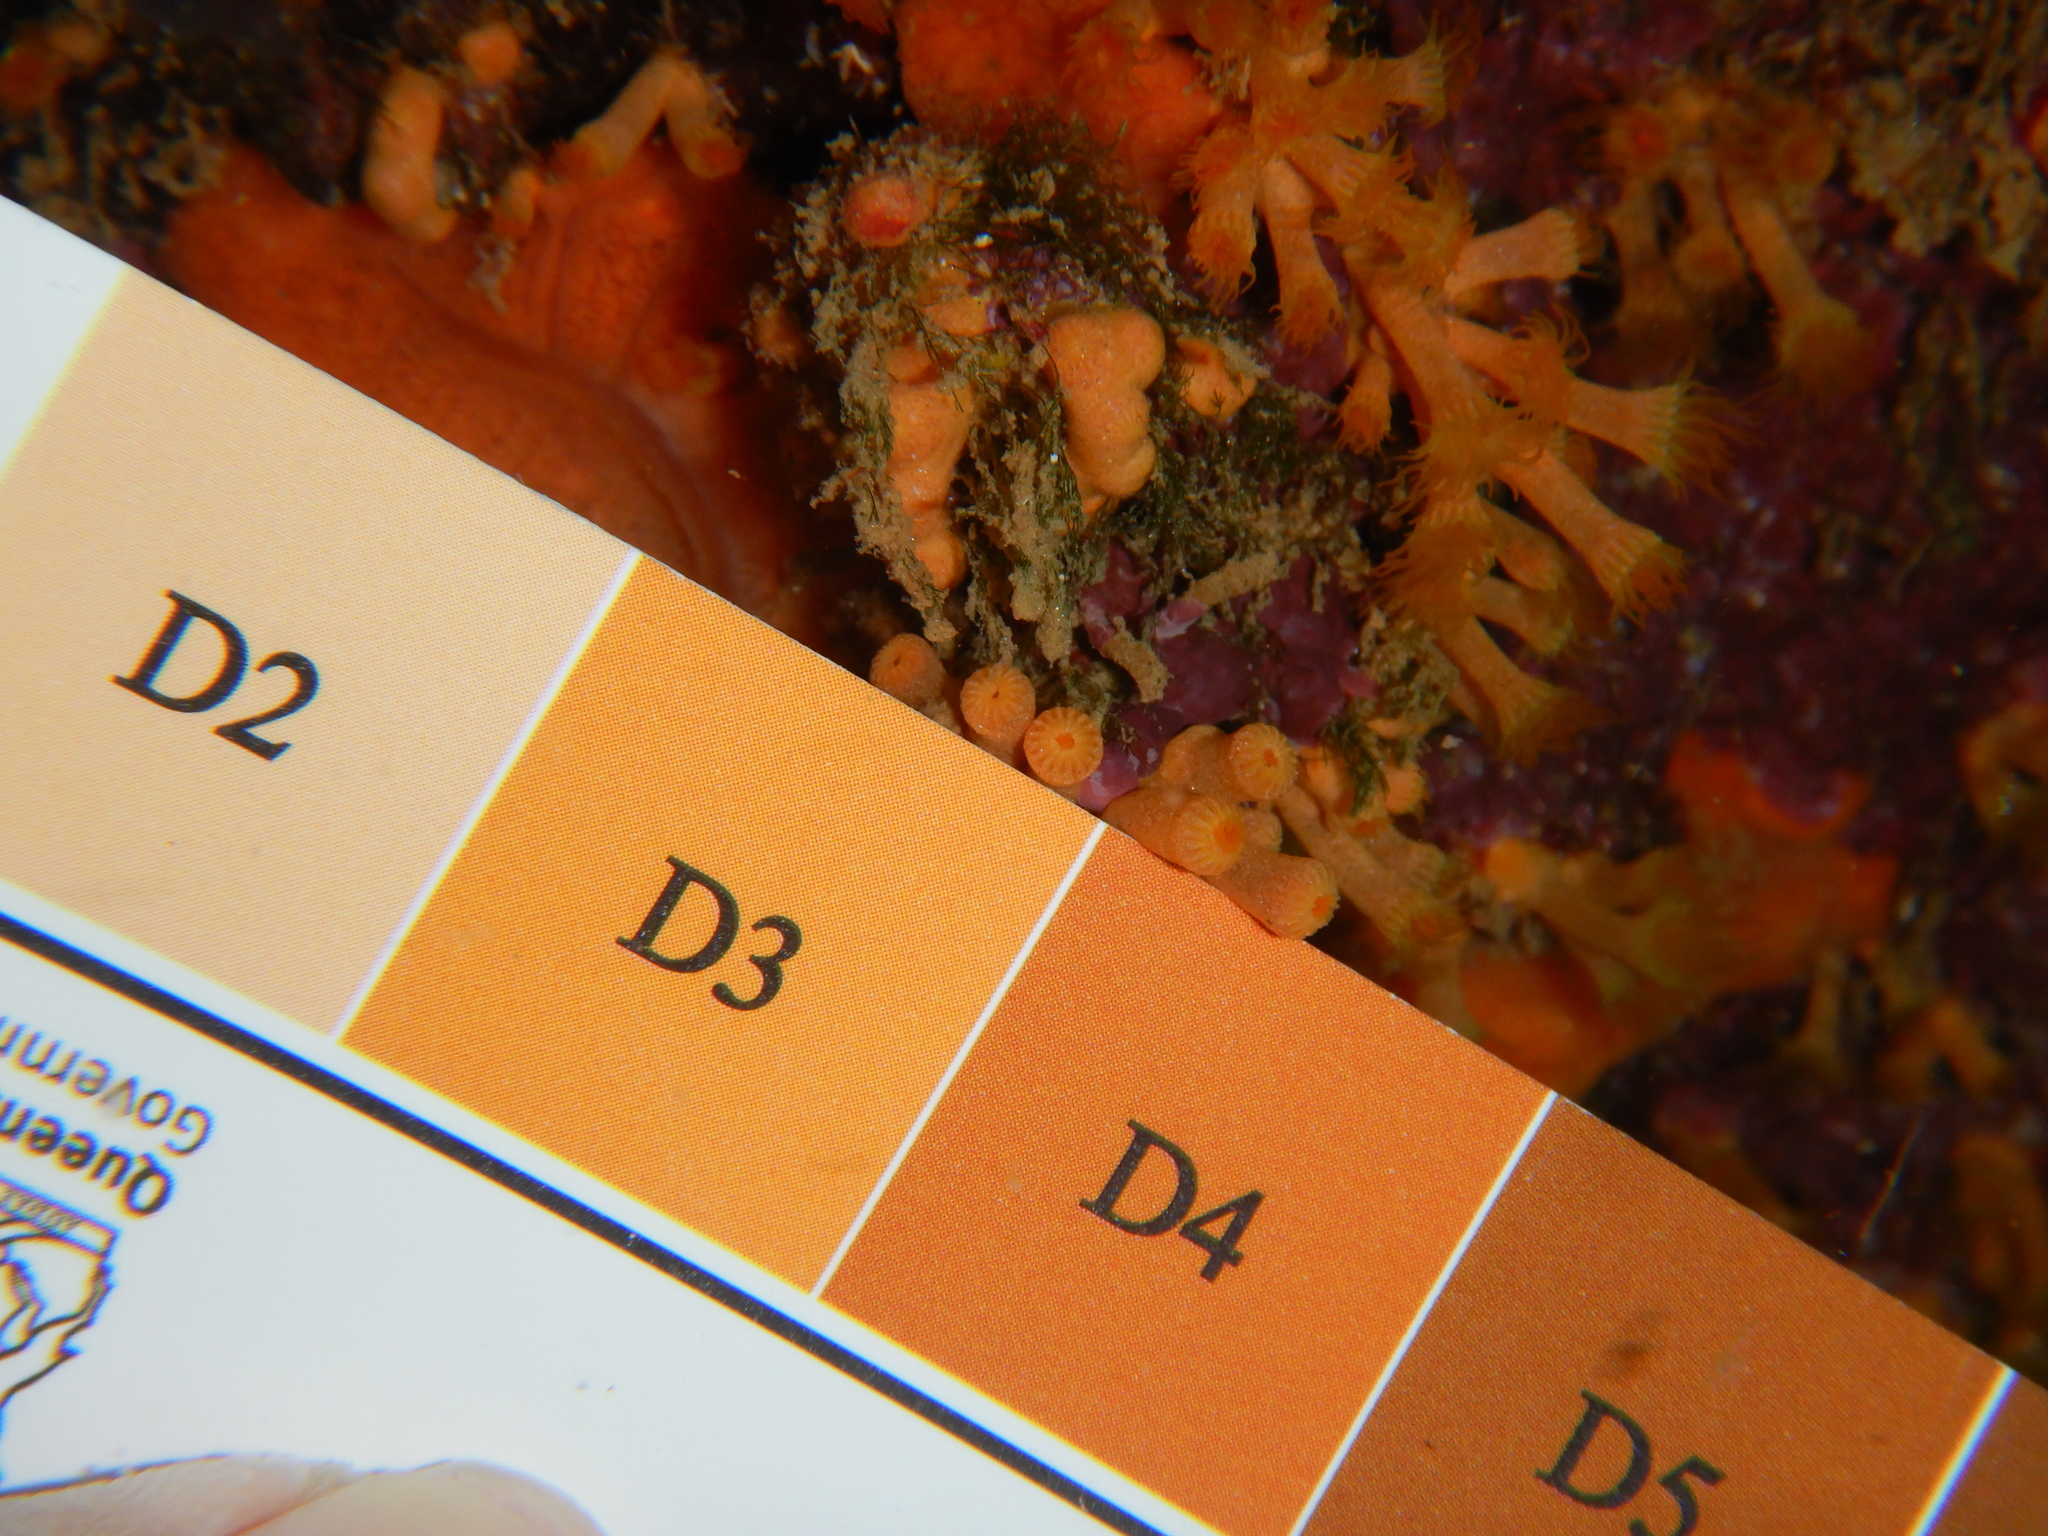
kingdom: Animalia
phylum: Cnidaria
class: Anthozoa
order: Zoantharia
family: Parazoanthidae
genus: Parazoanthus
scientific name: Parazoanthus axinellae
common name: Yellow cluster anemone
